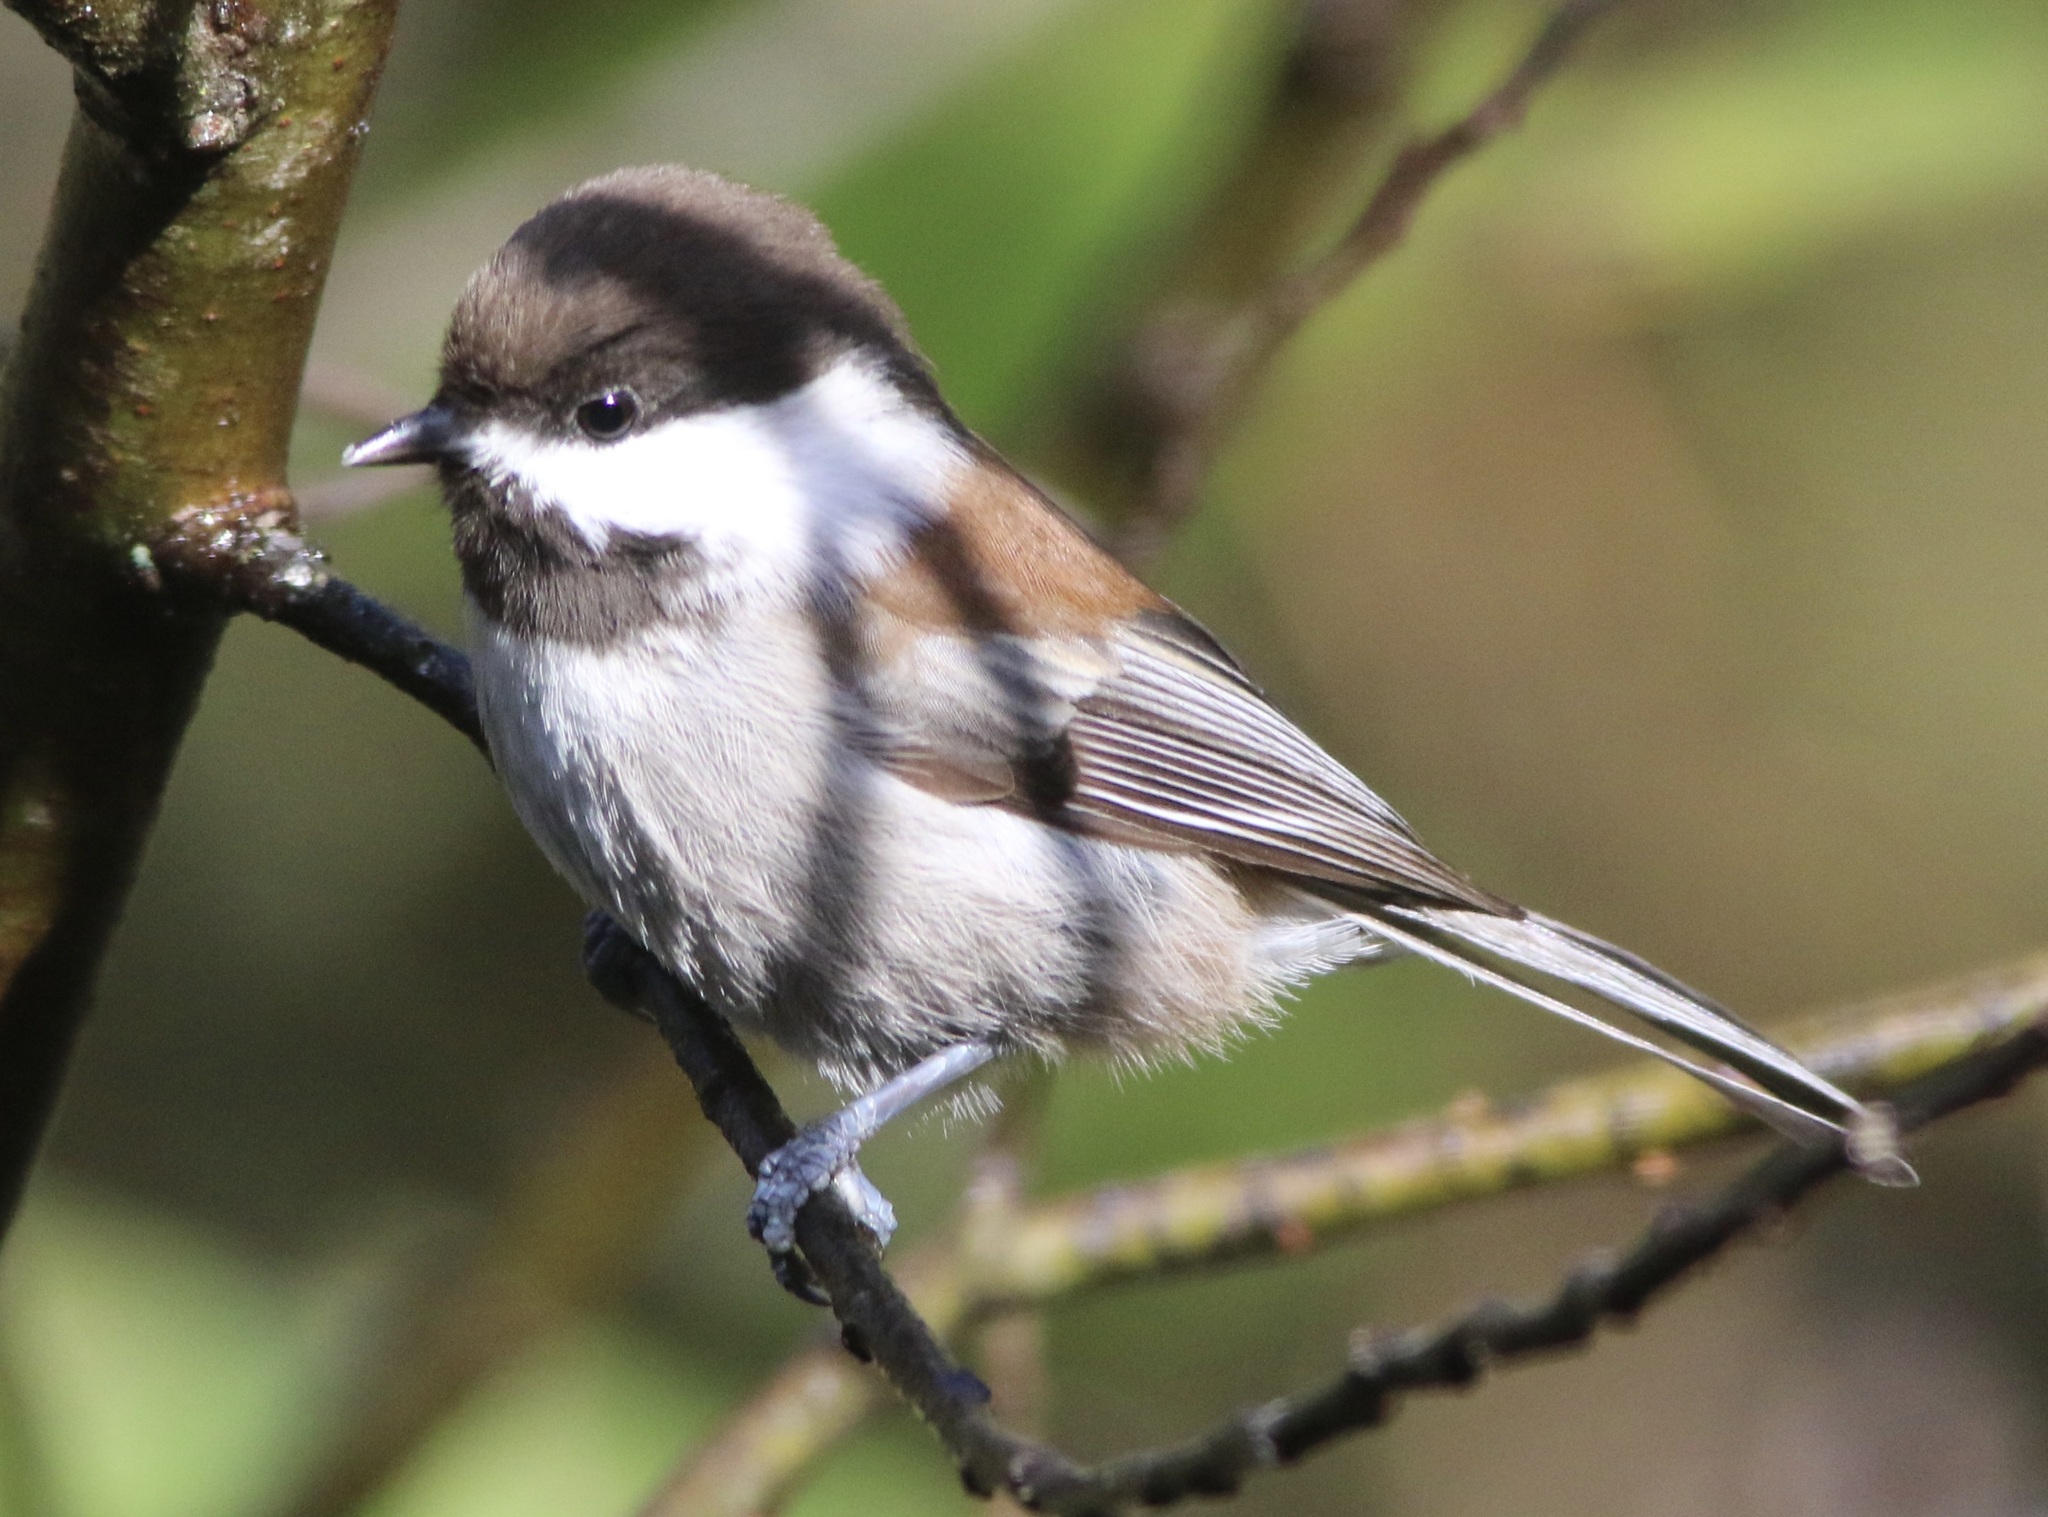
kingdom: Animalia
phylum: Chordata
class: Aves
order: Passeriformes
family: Paridae
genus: Poecile
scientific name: Poecile rufescens
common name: Chestnut-backed chickadee
